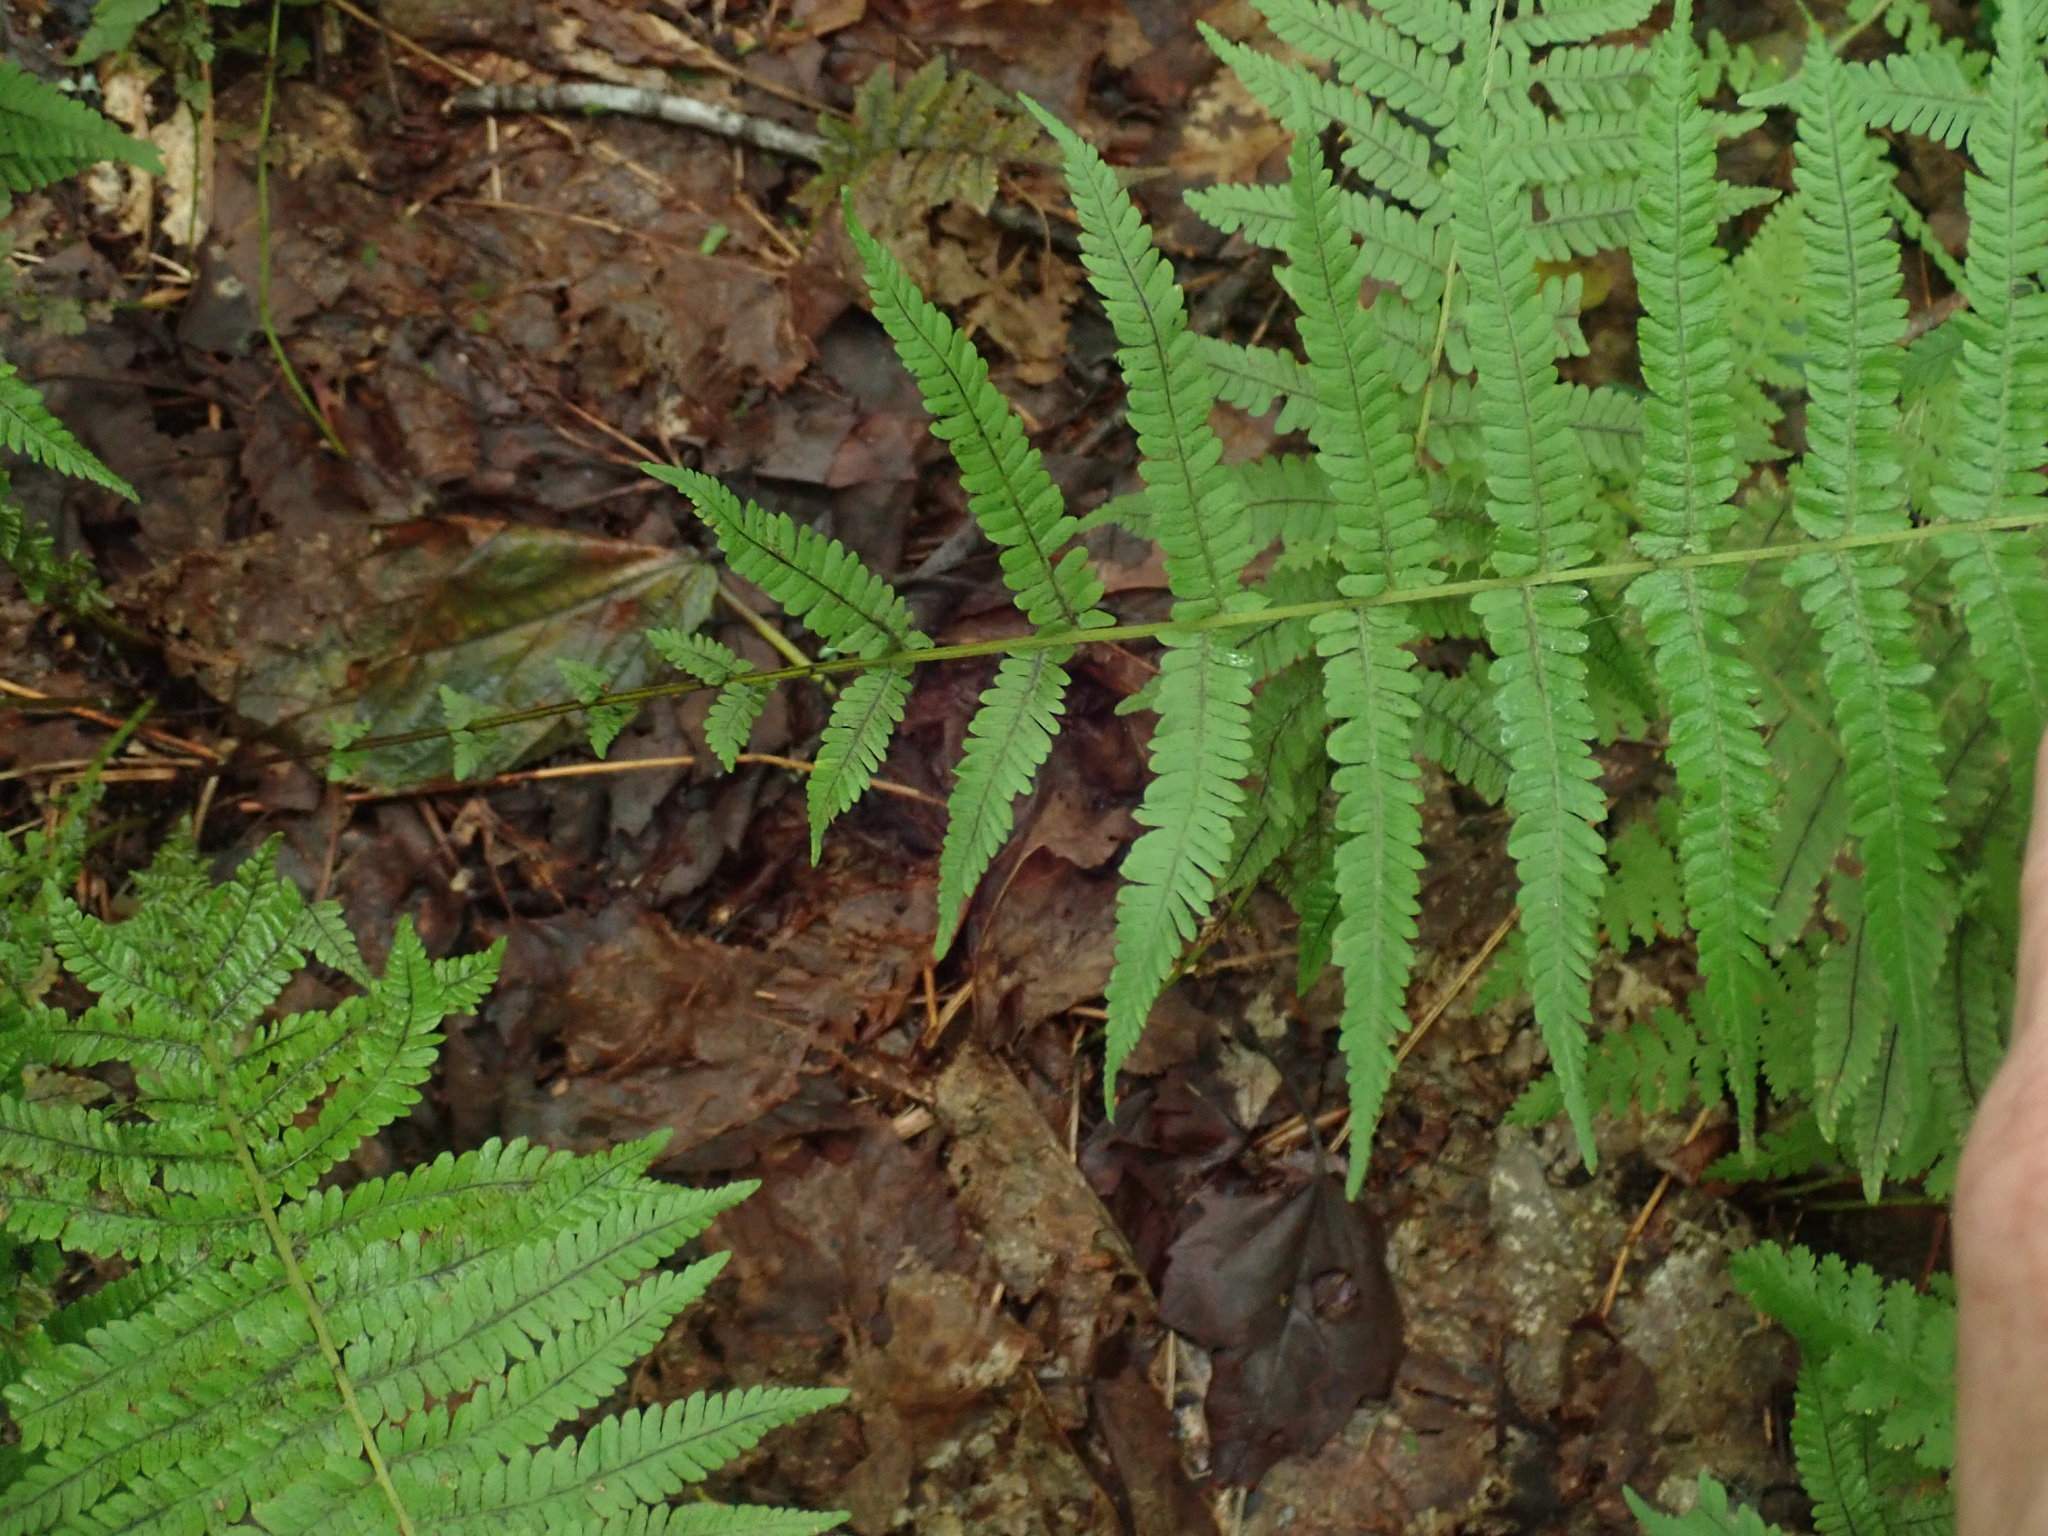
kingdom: Plantae
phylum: Tracheophyta
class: Polypodiopsida
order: Polypodiales
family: Thelypteridaceae
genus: Amauropelta
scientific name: Amauropelta noveboracensis
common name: New york fern
